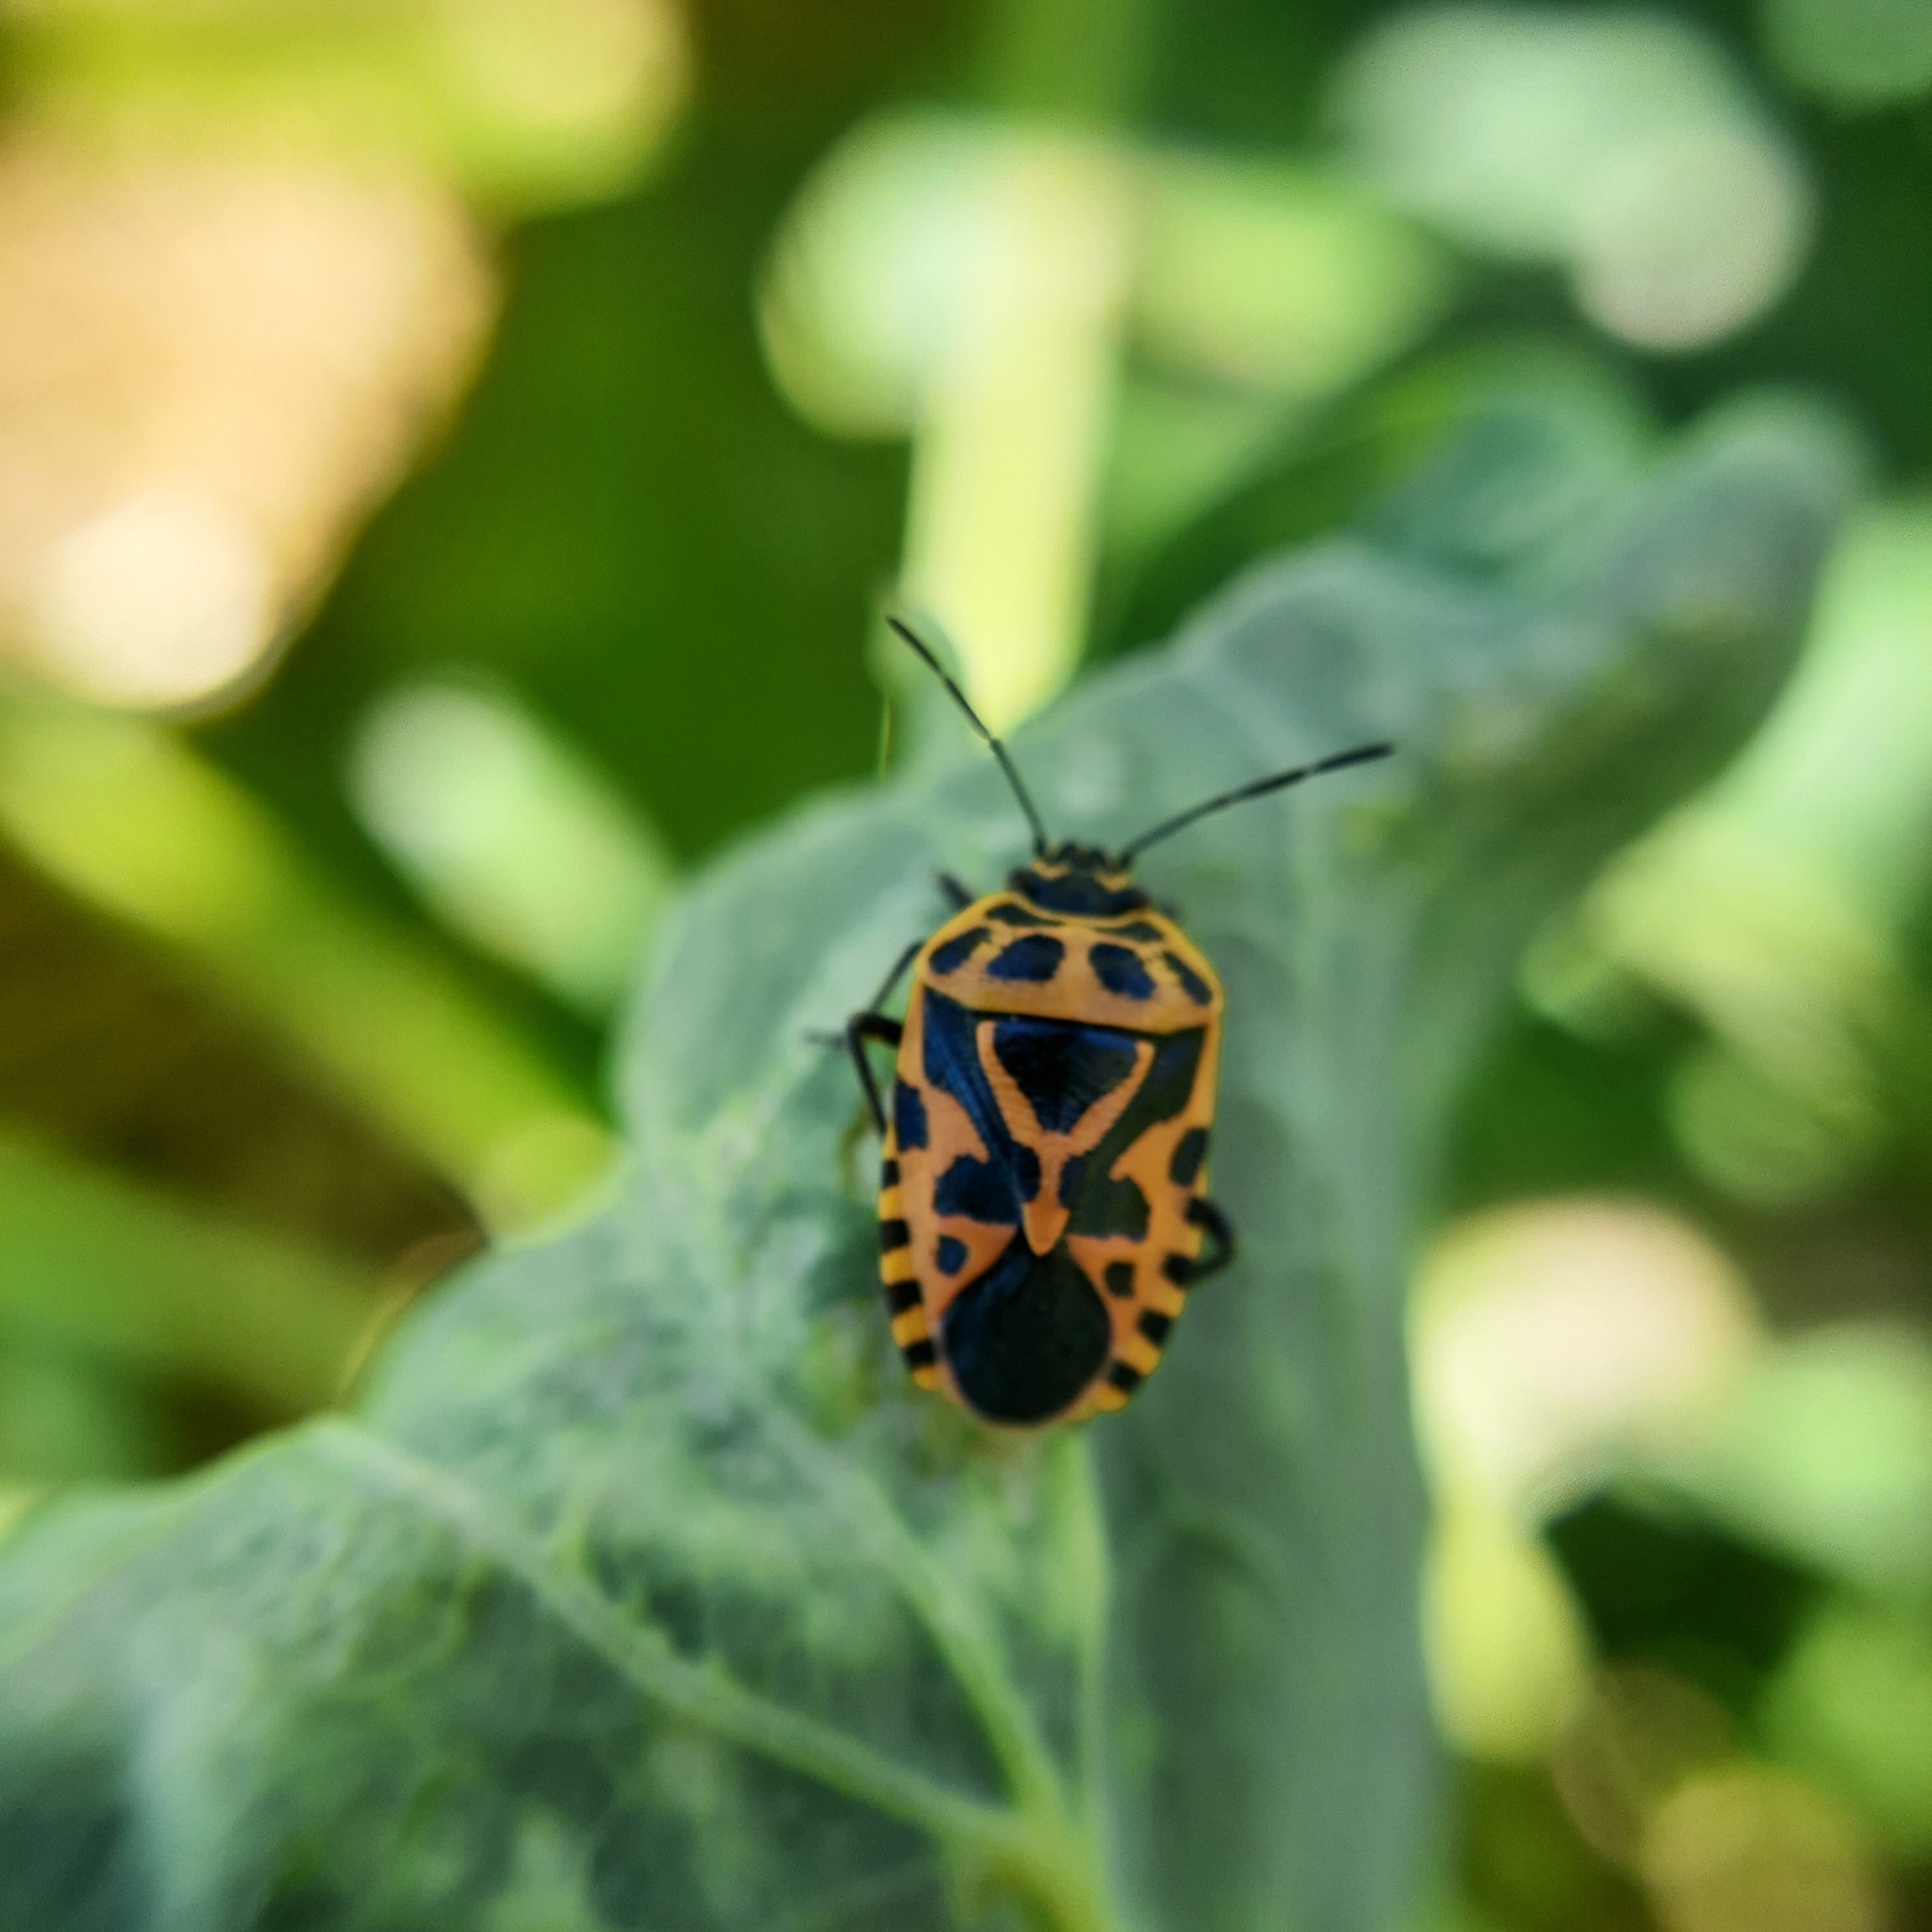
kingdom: Animalia
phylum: Arthropoda
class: Insecta
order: Hemiptera
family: Pentatomidae
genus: Eurydema
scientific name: Eurydema ventralis
